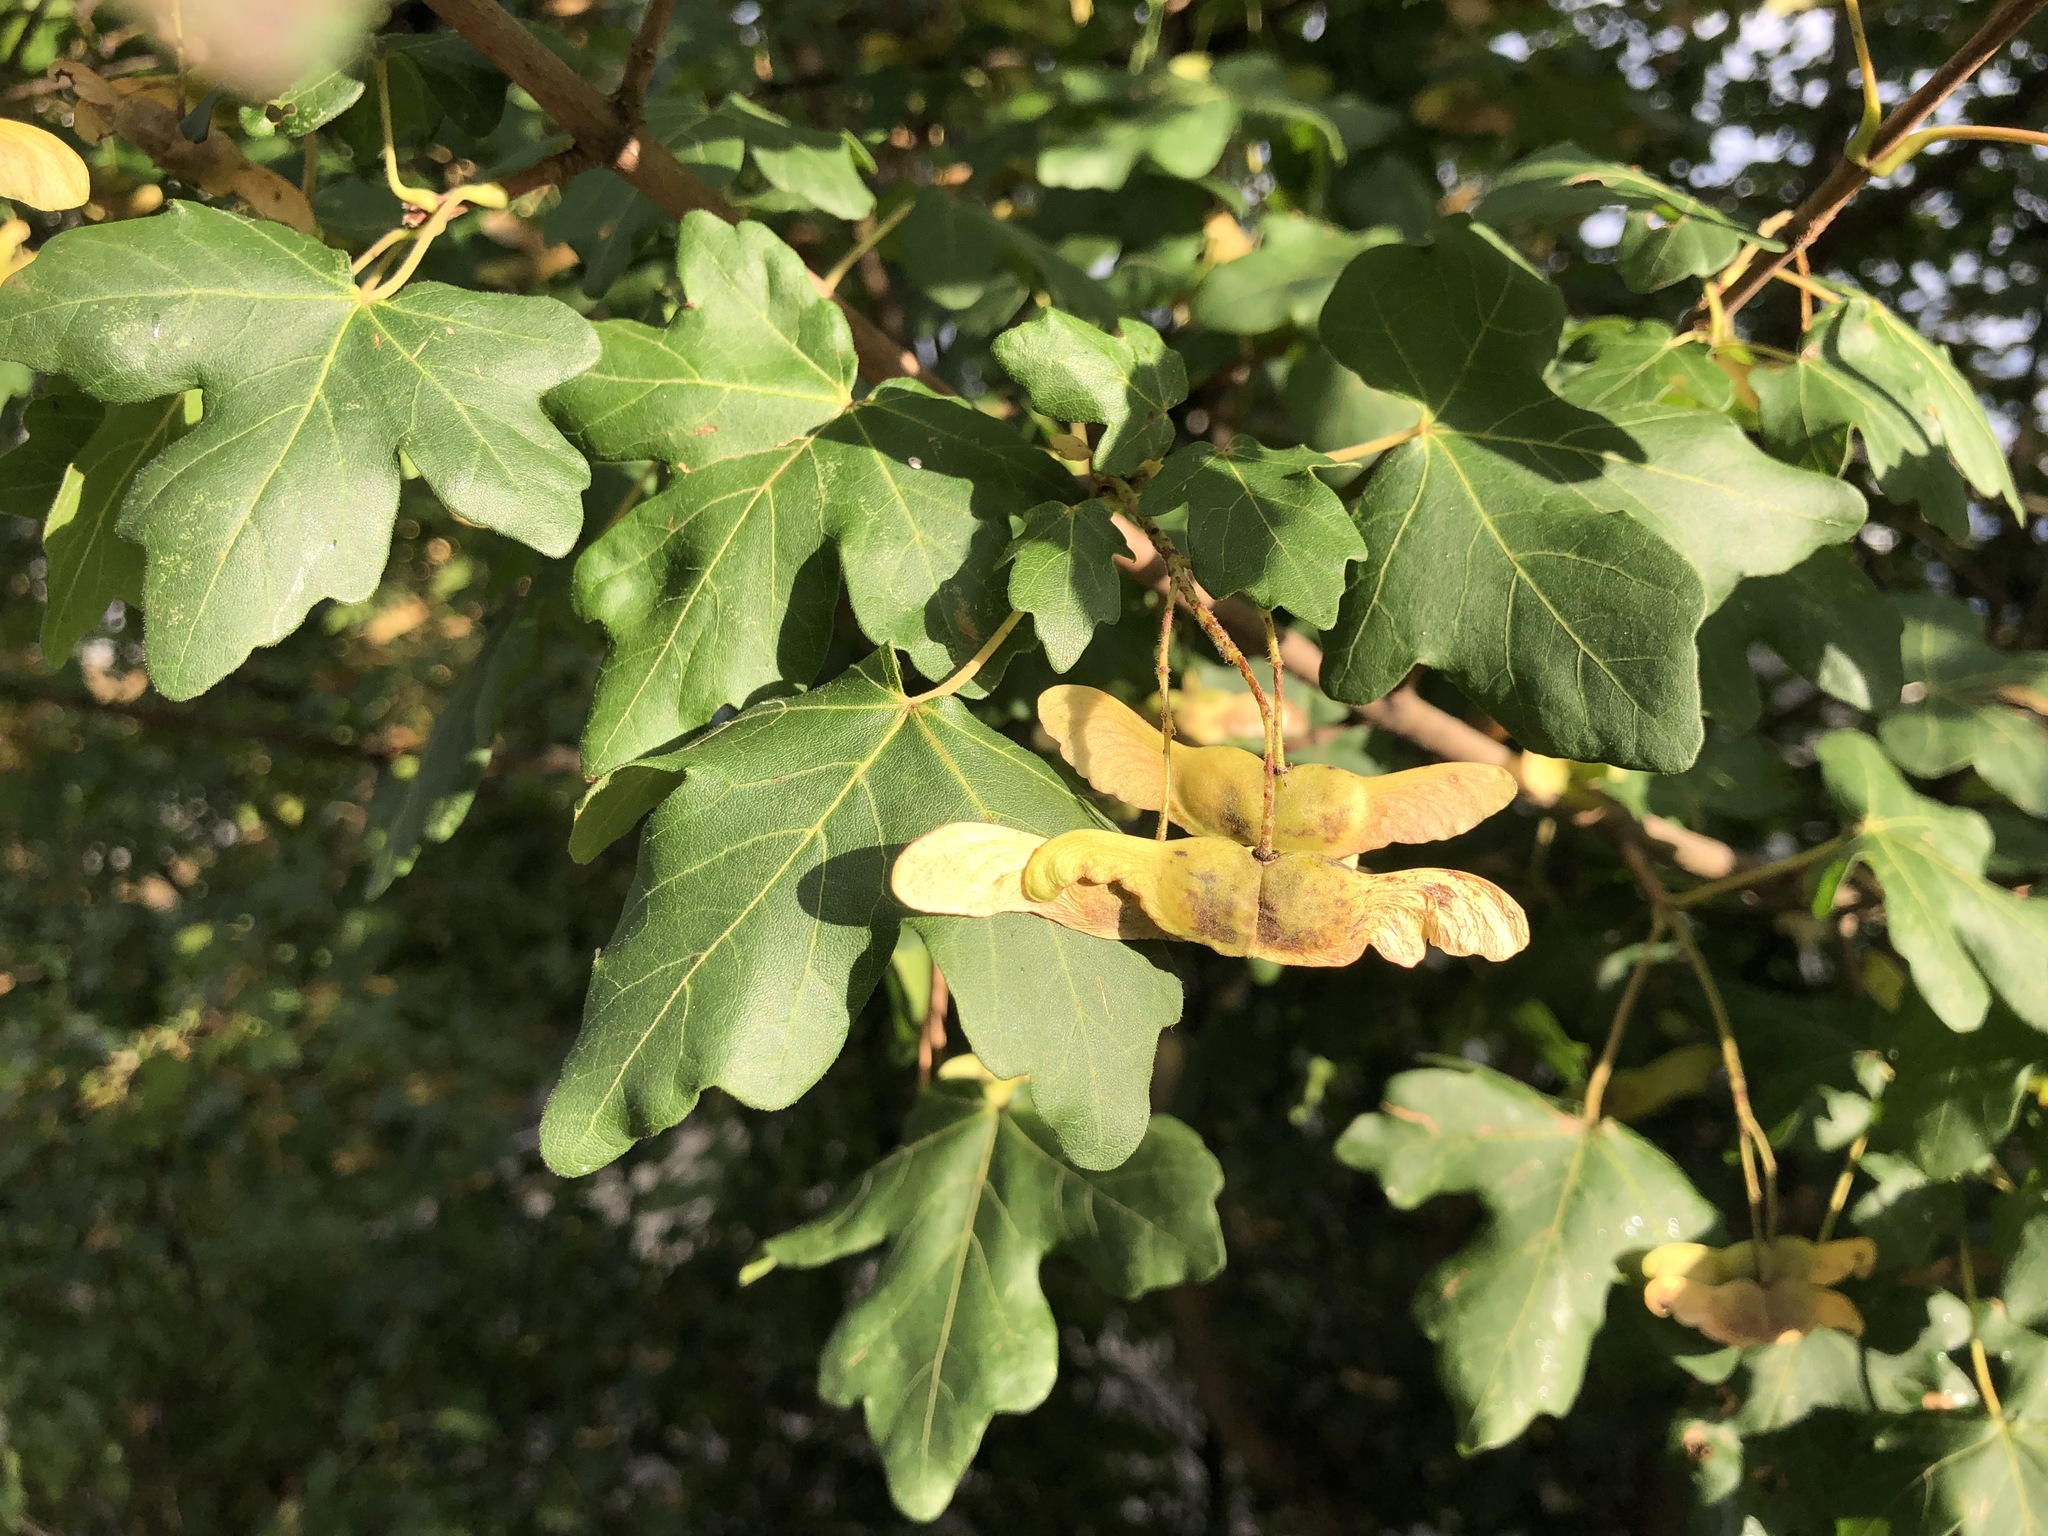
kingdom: Plantae
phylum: Tracheophyta
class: Magnoliopsida
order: Sapindales
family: Sapindaceae
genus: Acer
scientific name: Acer campestre
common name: Field maple
